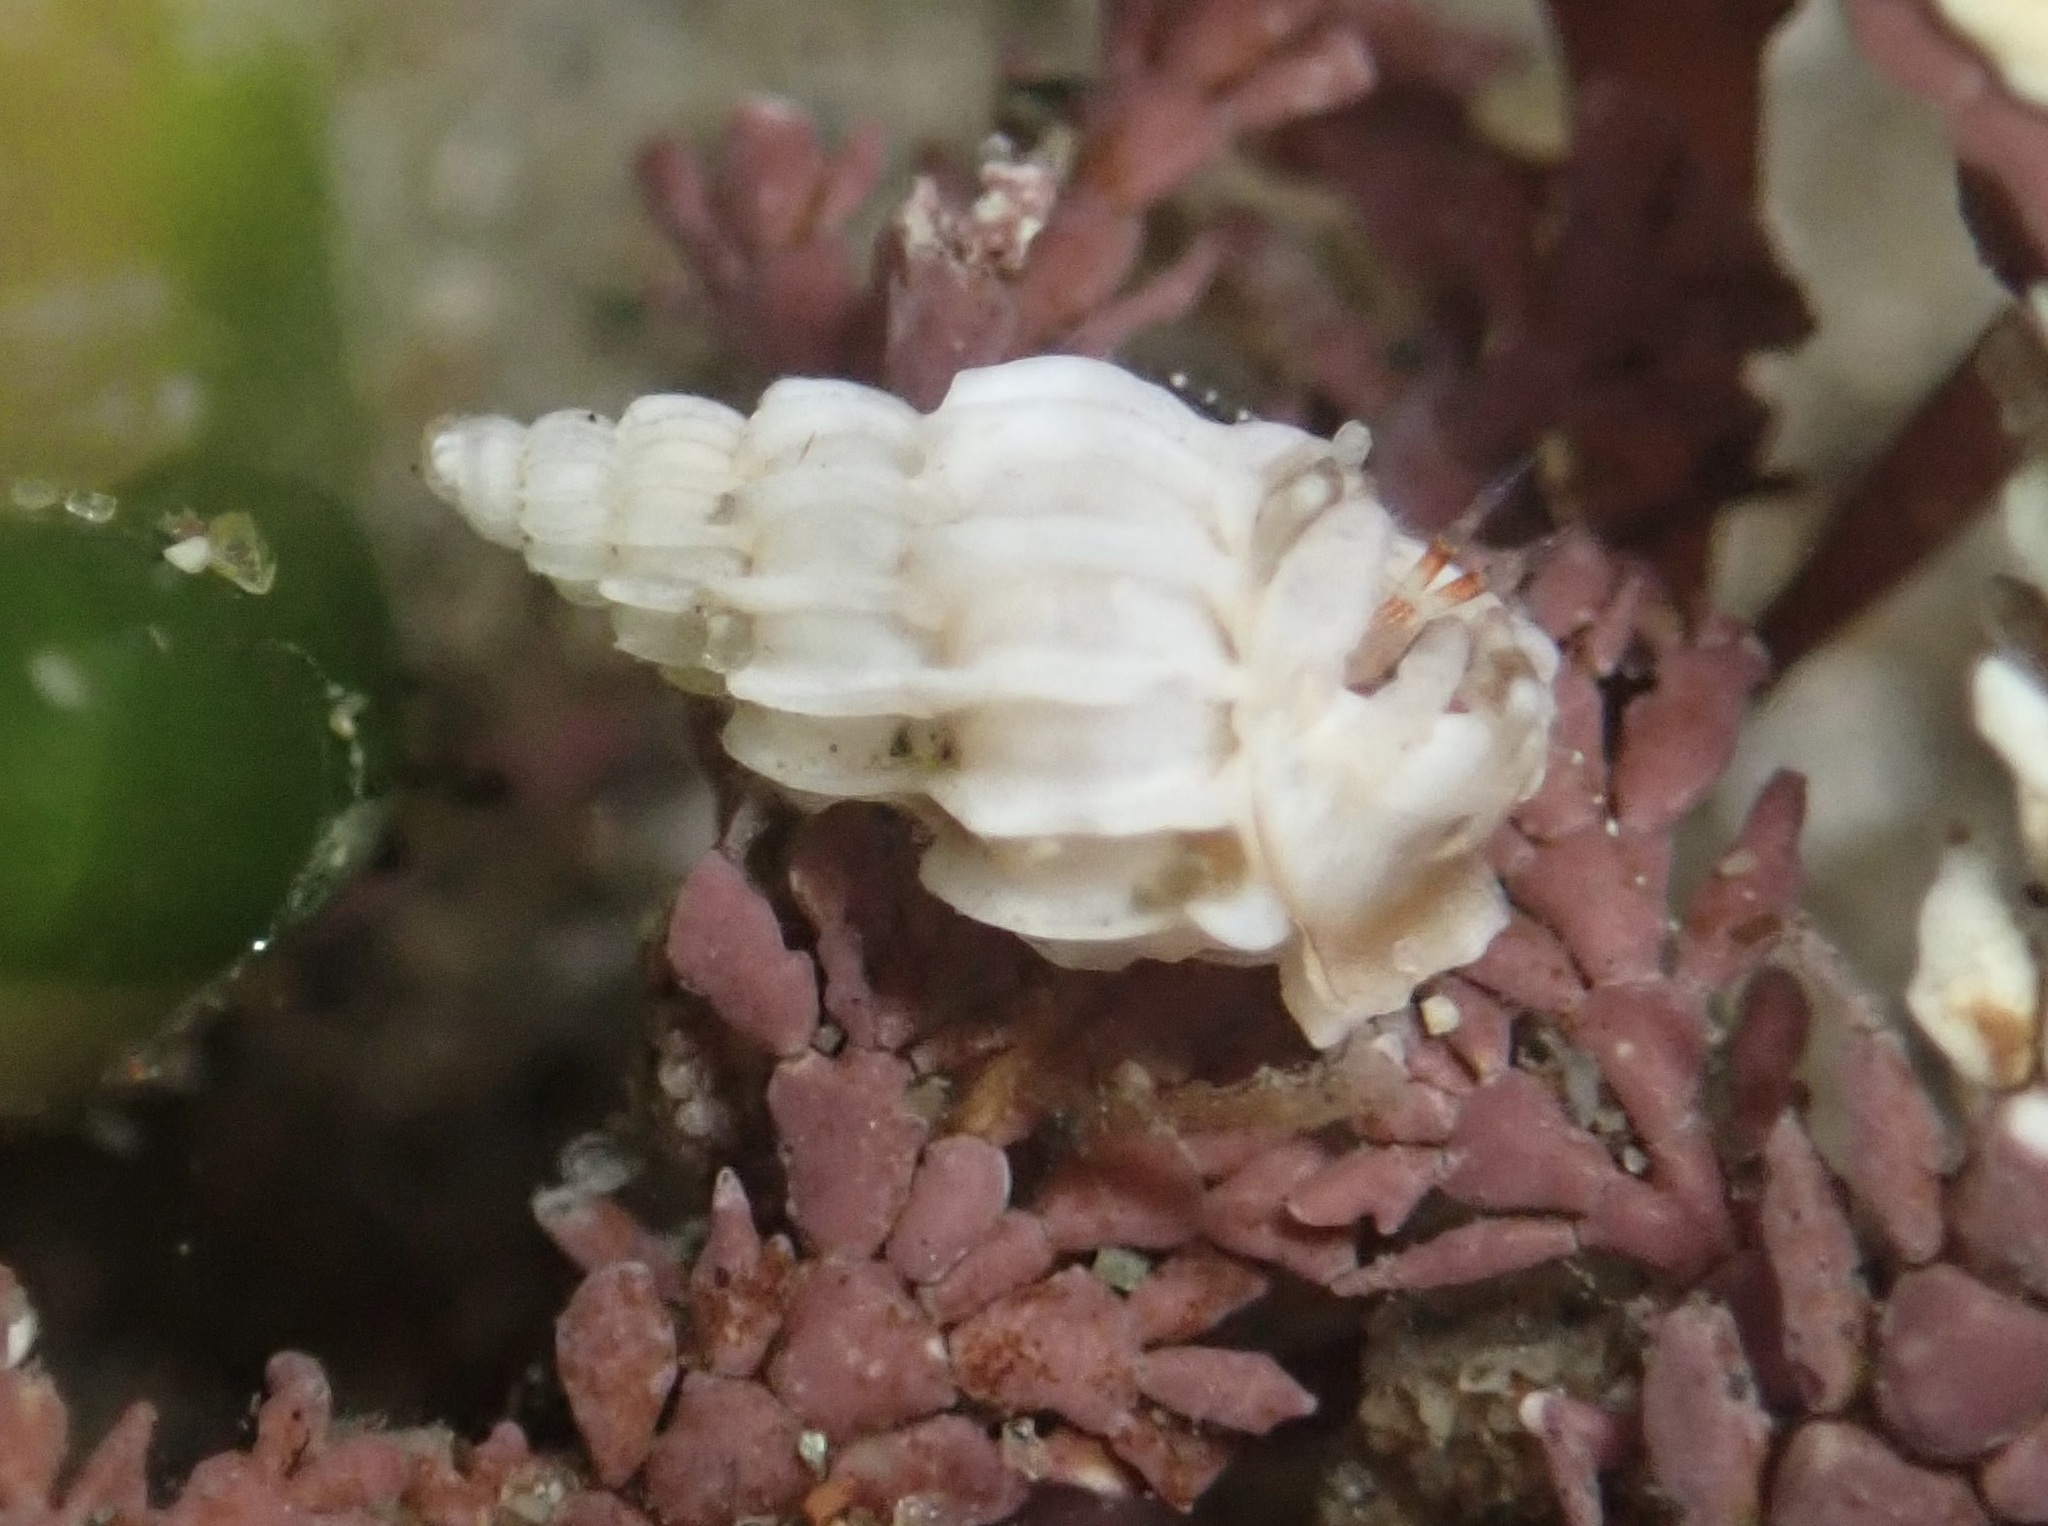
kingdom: Animalia
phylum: Mollusca
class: Gastropoda
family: Epitoniidae
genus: Epitonium
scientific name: Epitonium tinctum
